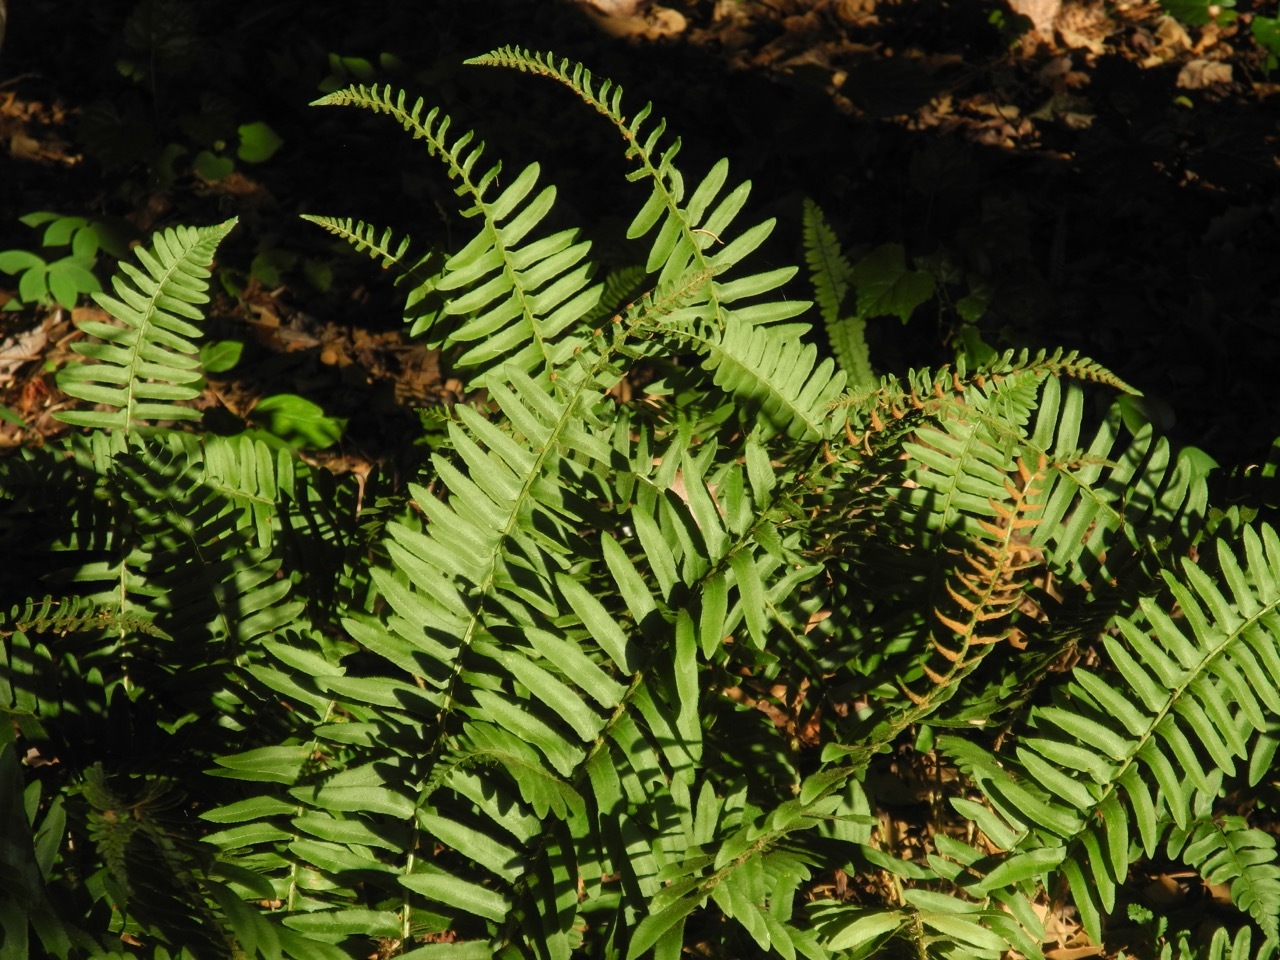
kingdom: Plantae
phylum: Tracheophyta
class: Polypodiopsida
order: Polypodiales
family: Dryopteridaceae
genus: Polystichum
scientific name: Polystichum acrostichoides
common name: Christmas fern
